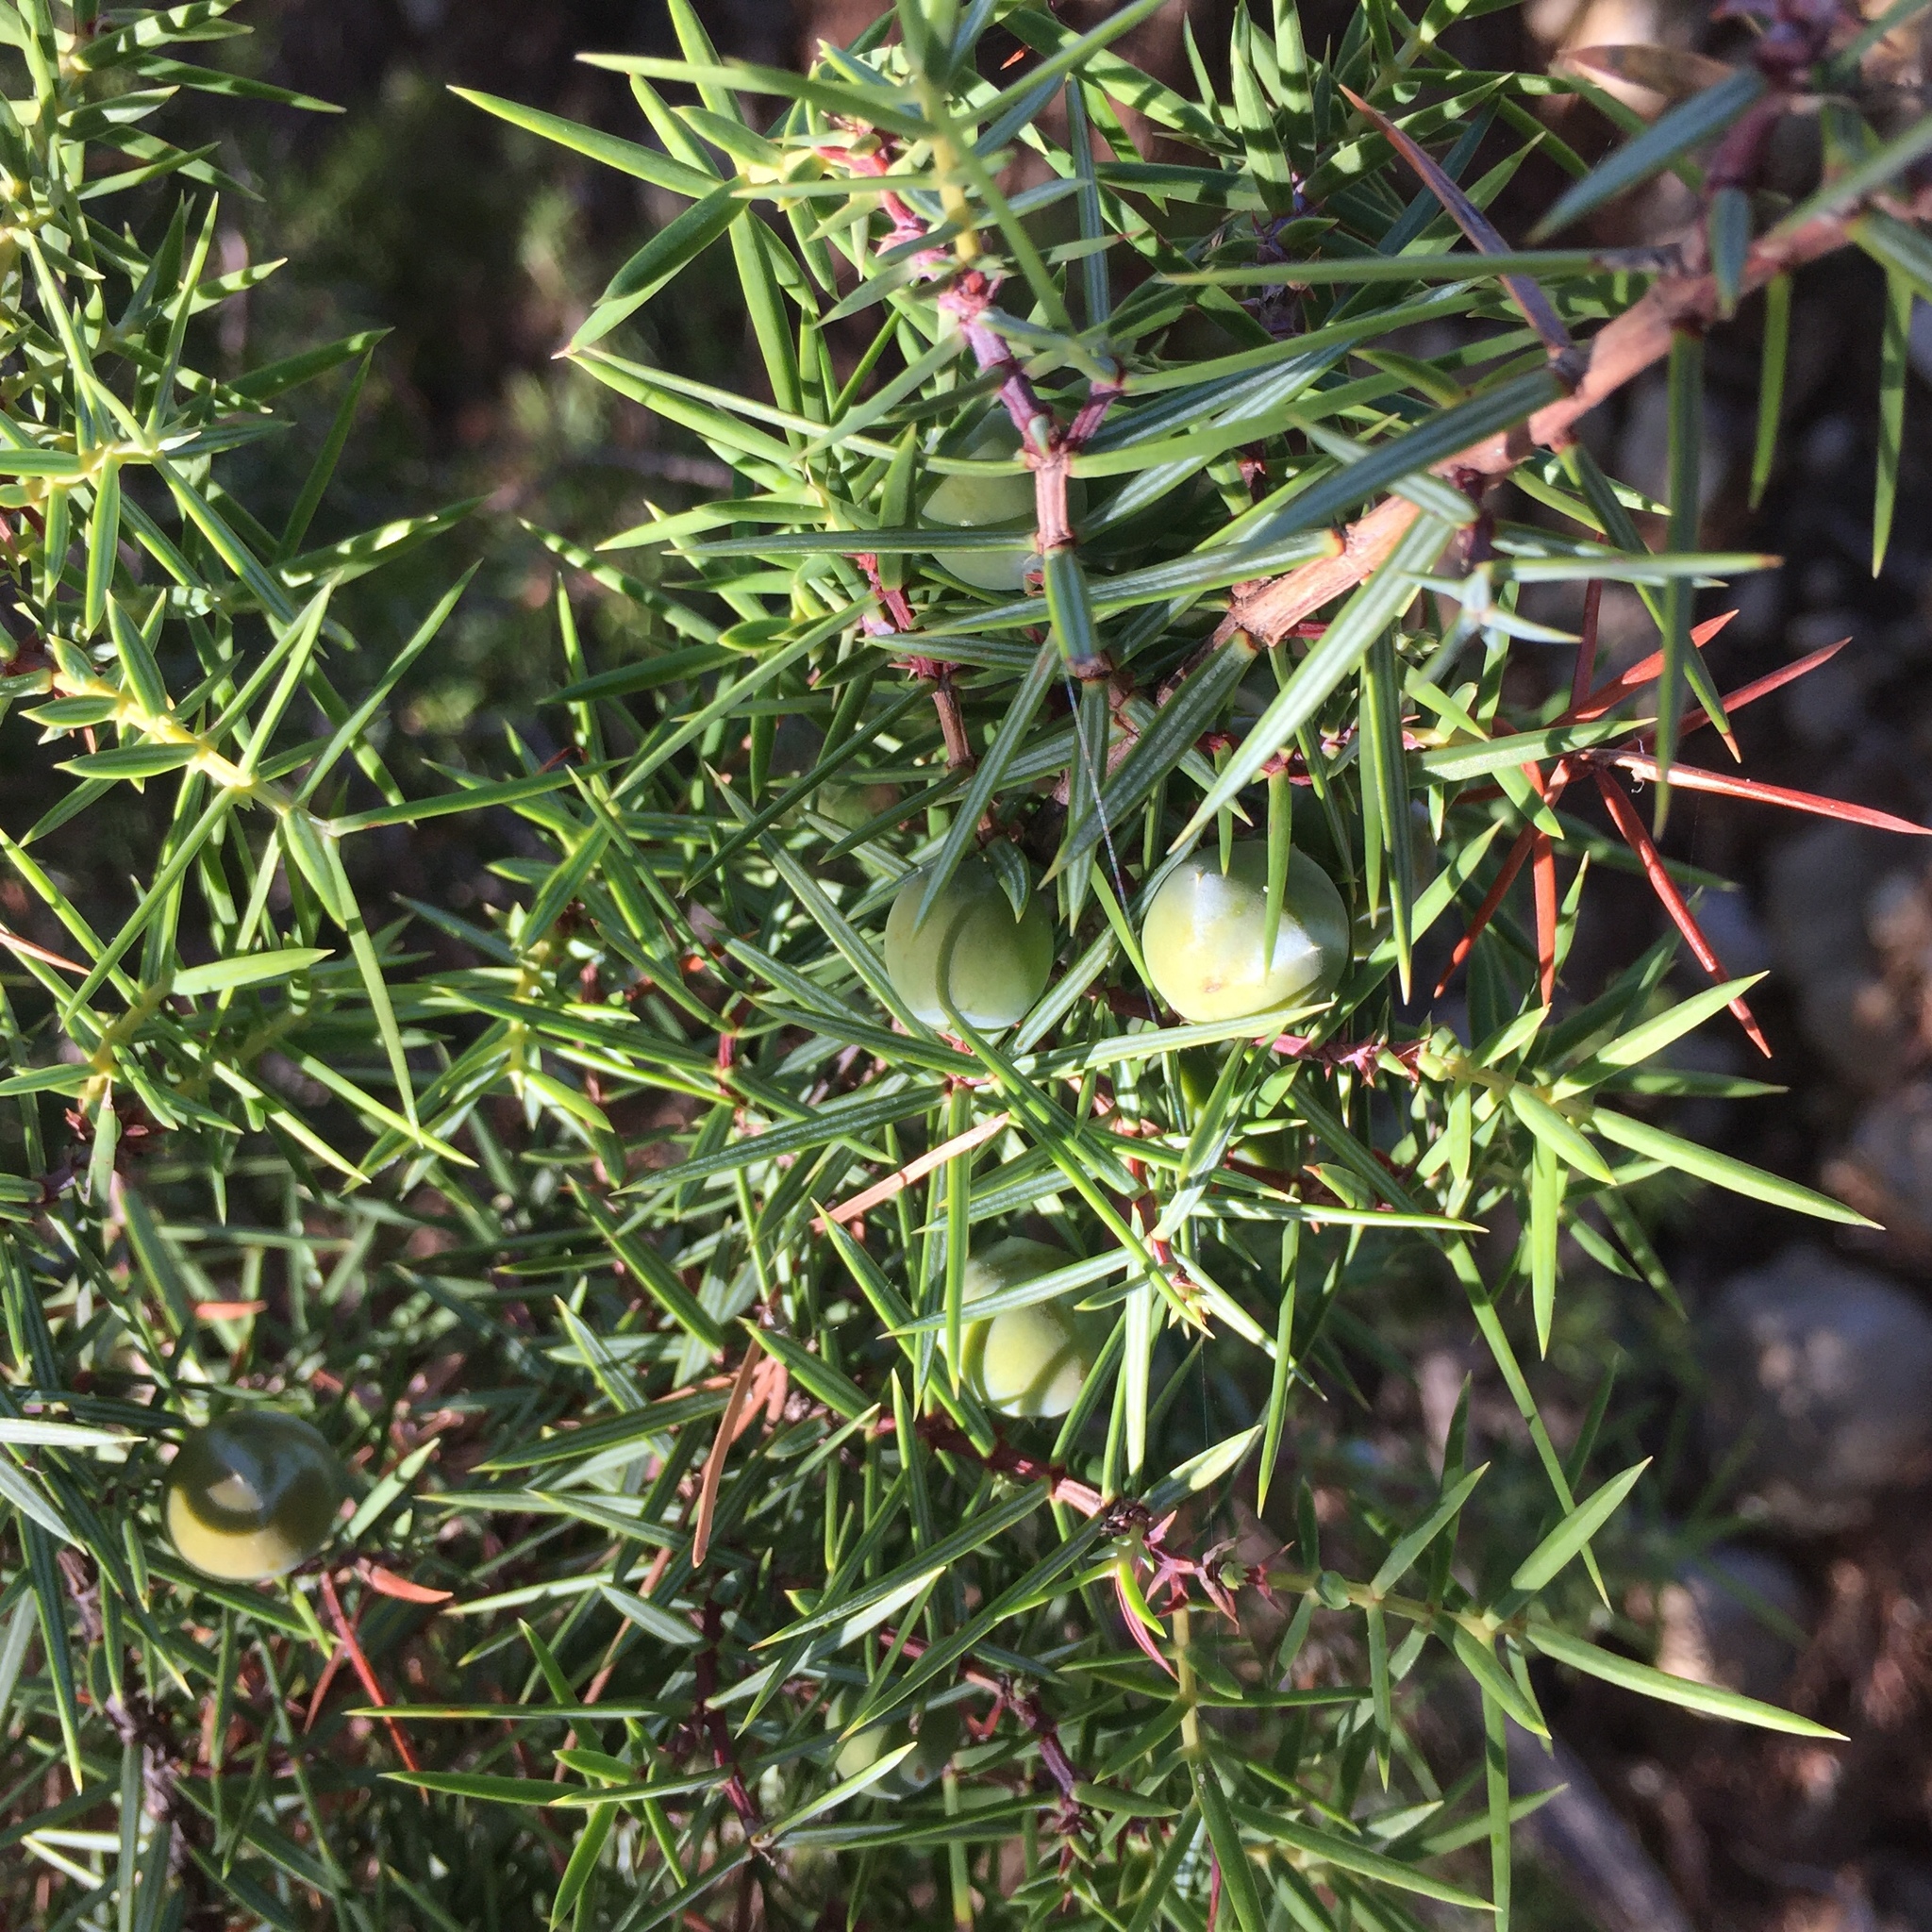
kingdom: Plantae
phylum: Tracheophyta
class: Pinopsida
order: Pinales
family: Cupressaceae
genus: Juniperus
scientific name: Juniperus oxycedrus
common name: Prickly juniper
